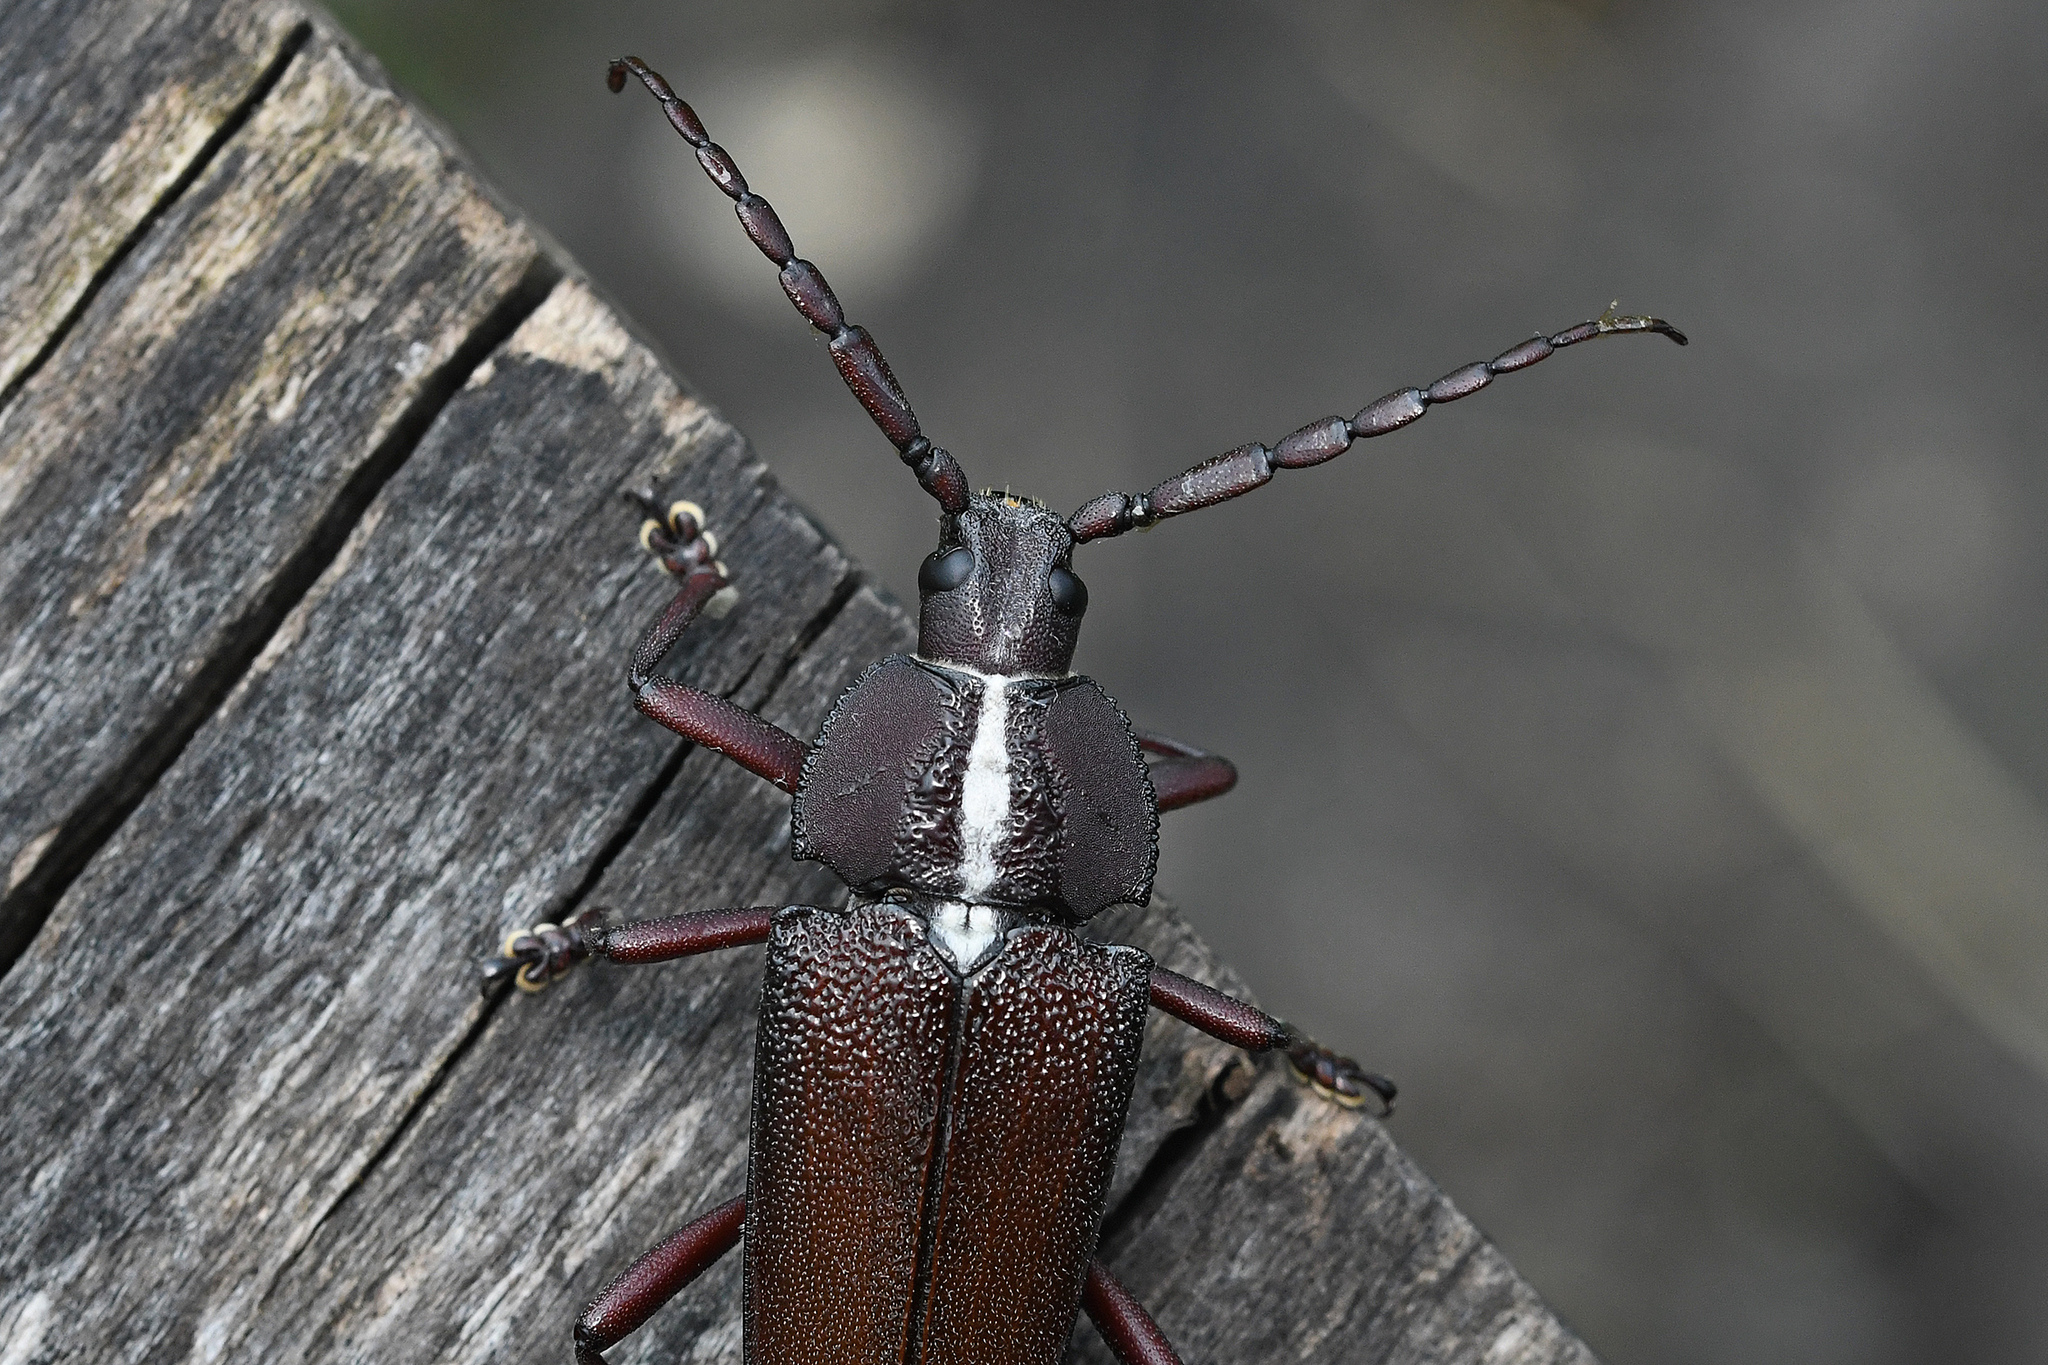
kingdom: Animalia
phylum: Arthropoda
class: Insecta
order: Coleoptera
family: Cerambycidae
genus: Solenoptera
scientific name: Solenoptera canaliculata
